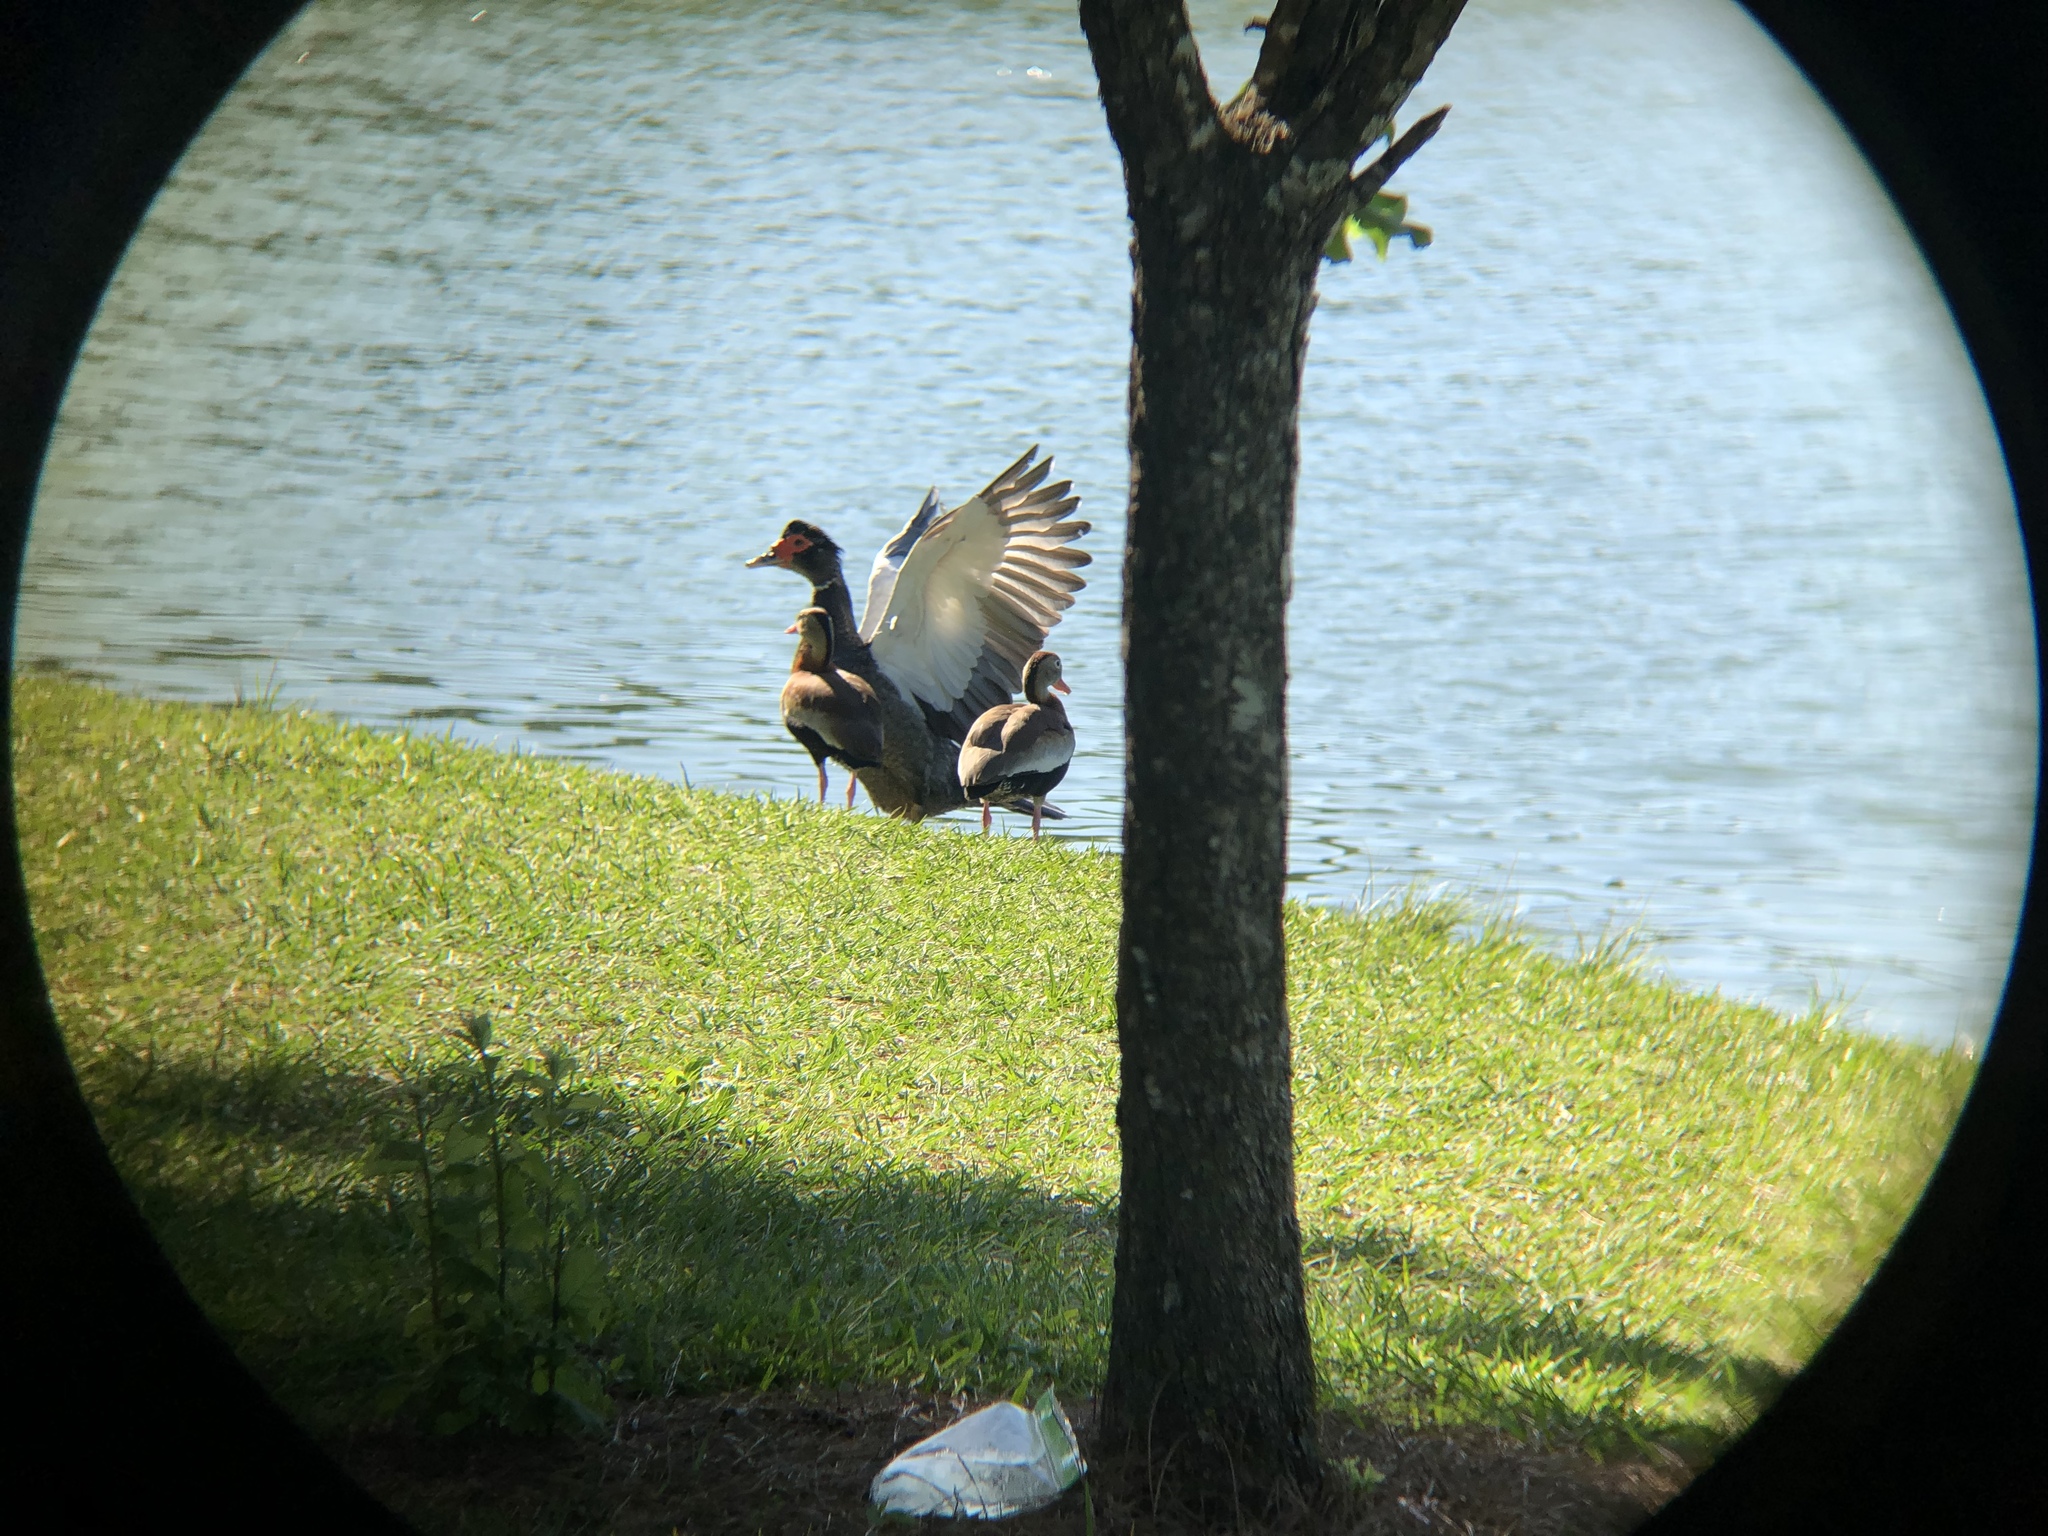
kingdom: Animalia
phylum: Chordata
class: Aves
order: Anseriformes
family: Anatidae
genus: Cairina
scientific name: Cairina moschata
